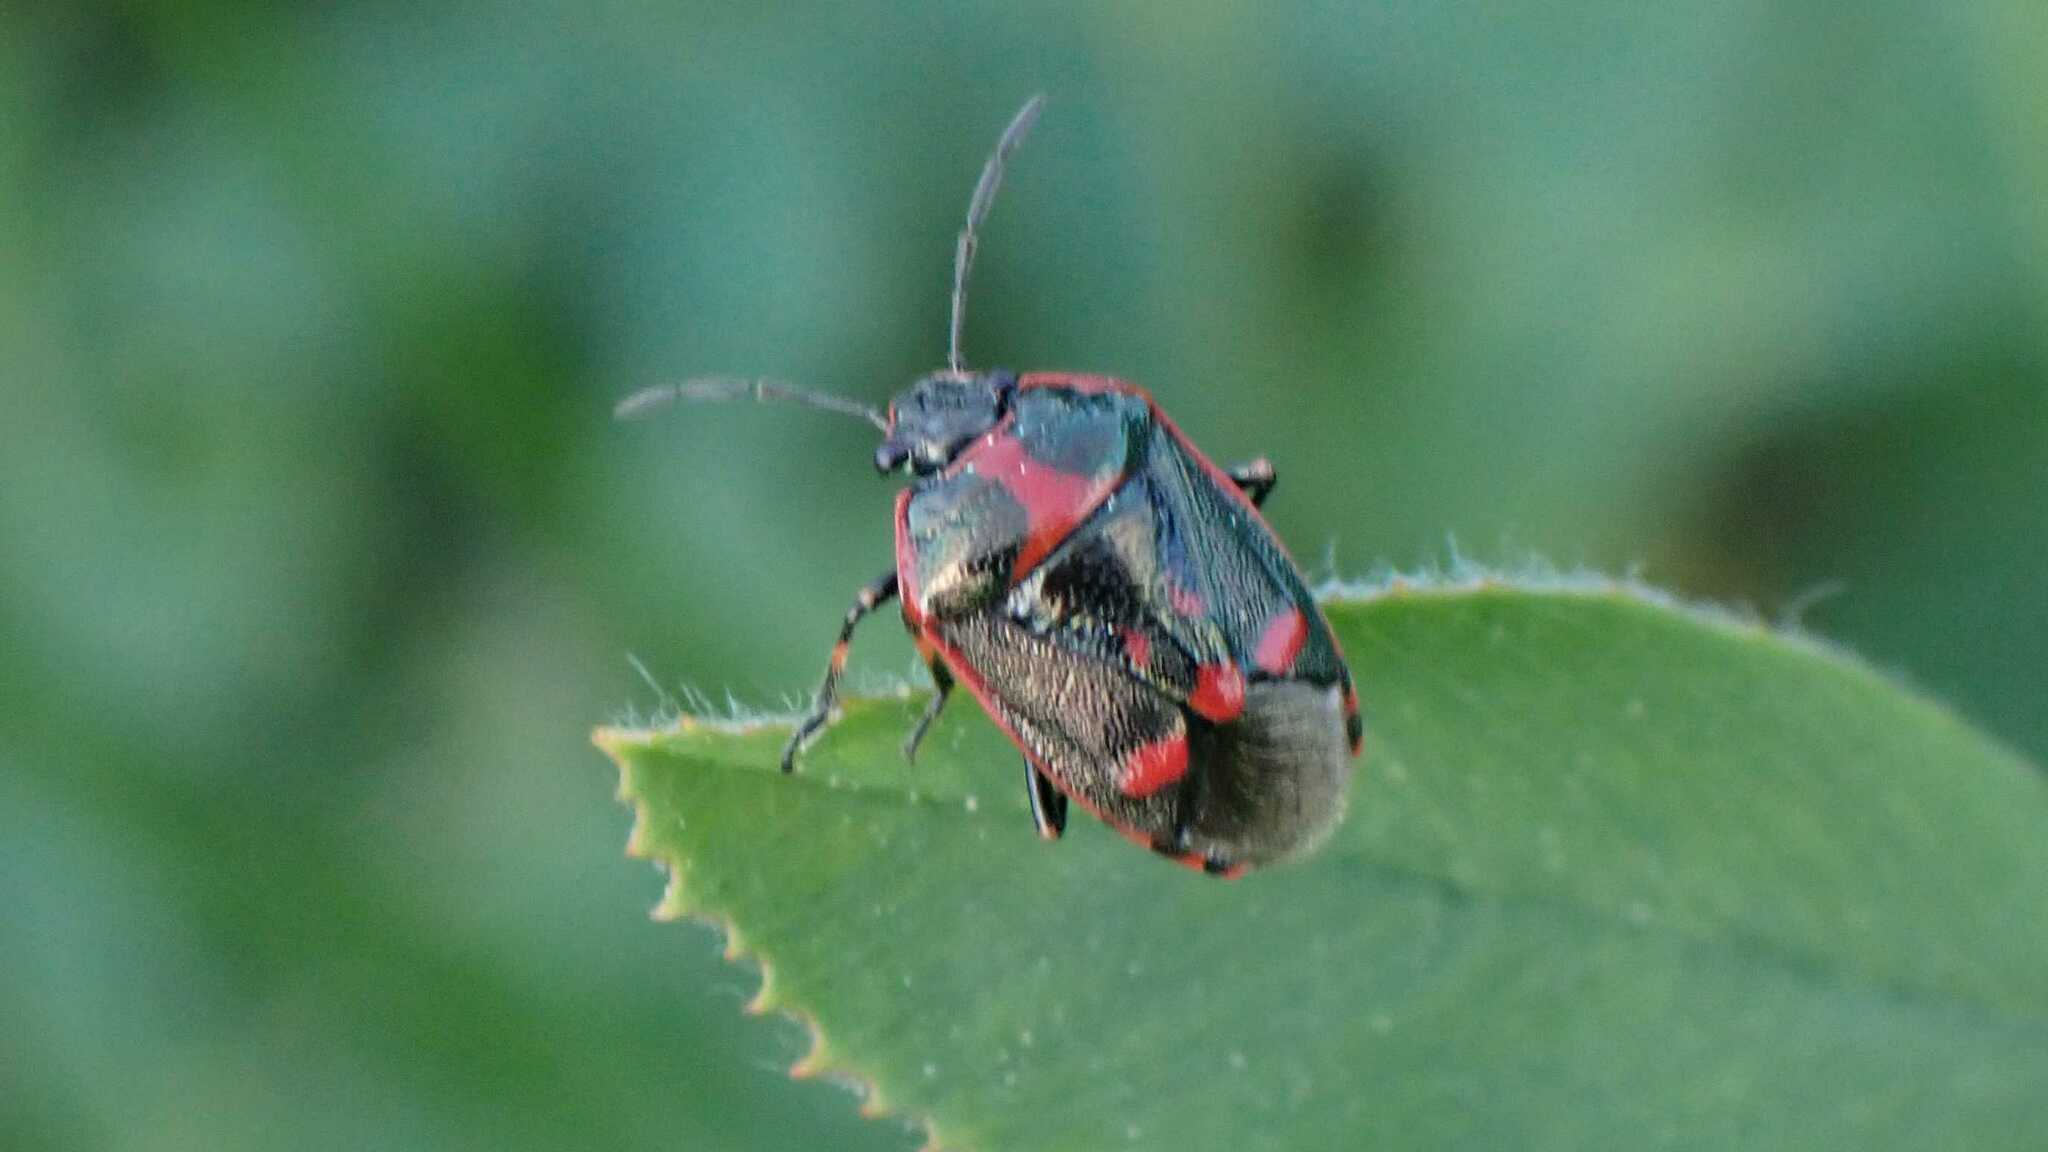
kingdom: Animalia
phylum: Arthropoda
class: Insecta
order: Hemiptera
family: Pentatomidae
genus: Eurydema
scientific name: Eurydema oleracea
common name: Cabbage bug
